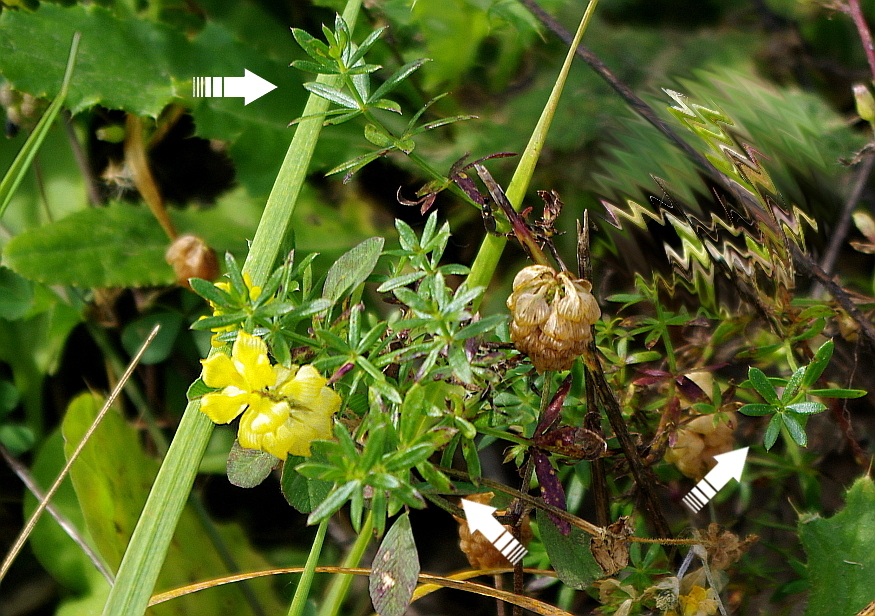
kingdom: Plantae
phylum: Tracheophyta
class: Magnoliopsida
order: Gentianales
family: Rubiaceae
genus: Galium
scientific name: Galium mollugo
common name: Hedge bedstraw
